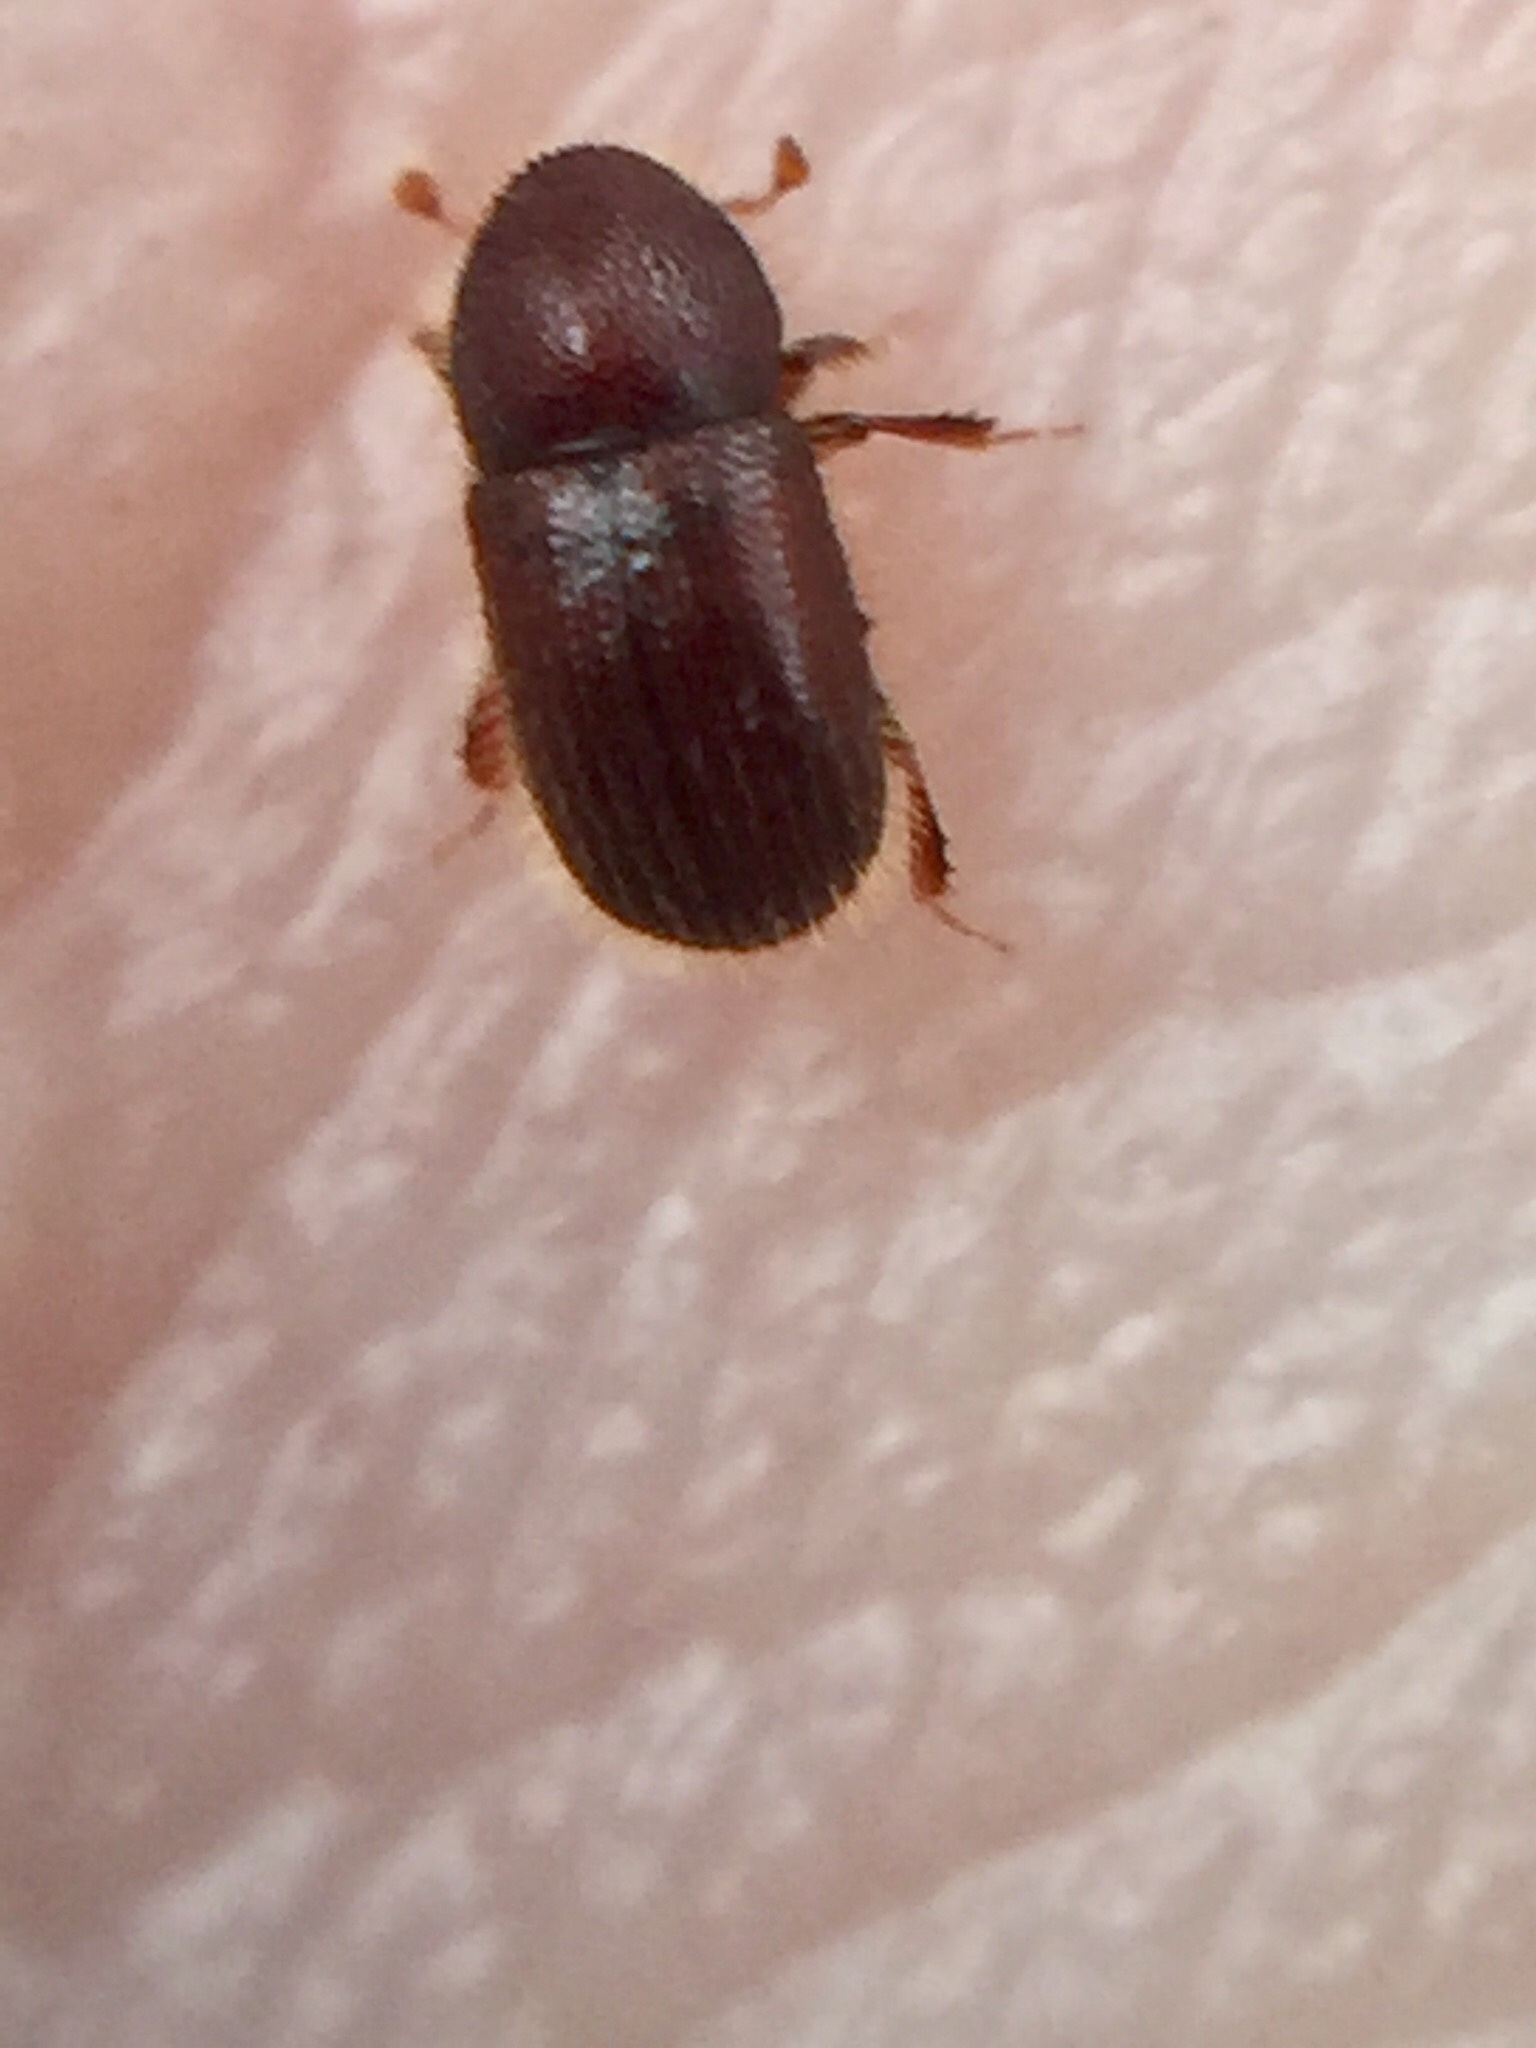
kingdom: Animalia
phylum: Arthropoda
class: Insecta
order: Coleoptera
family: Curculionidae
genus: Coccotrypes
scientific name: Coccotrypes dactyliperda
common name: Bark beetle
